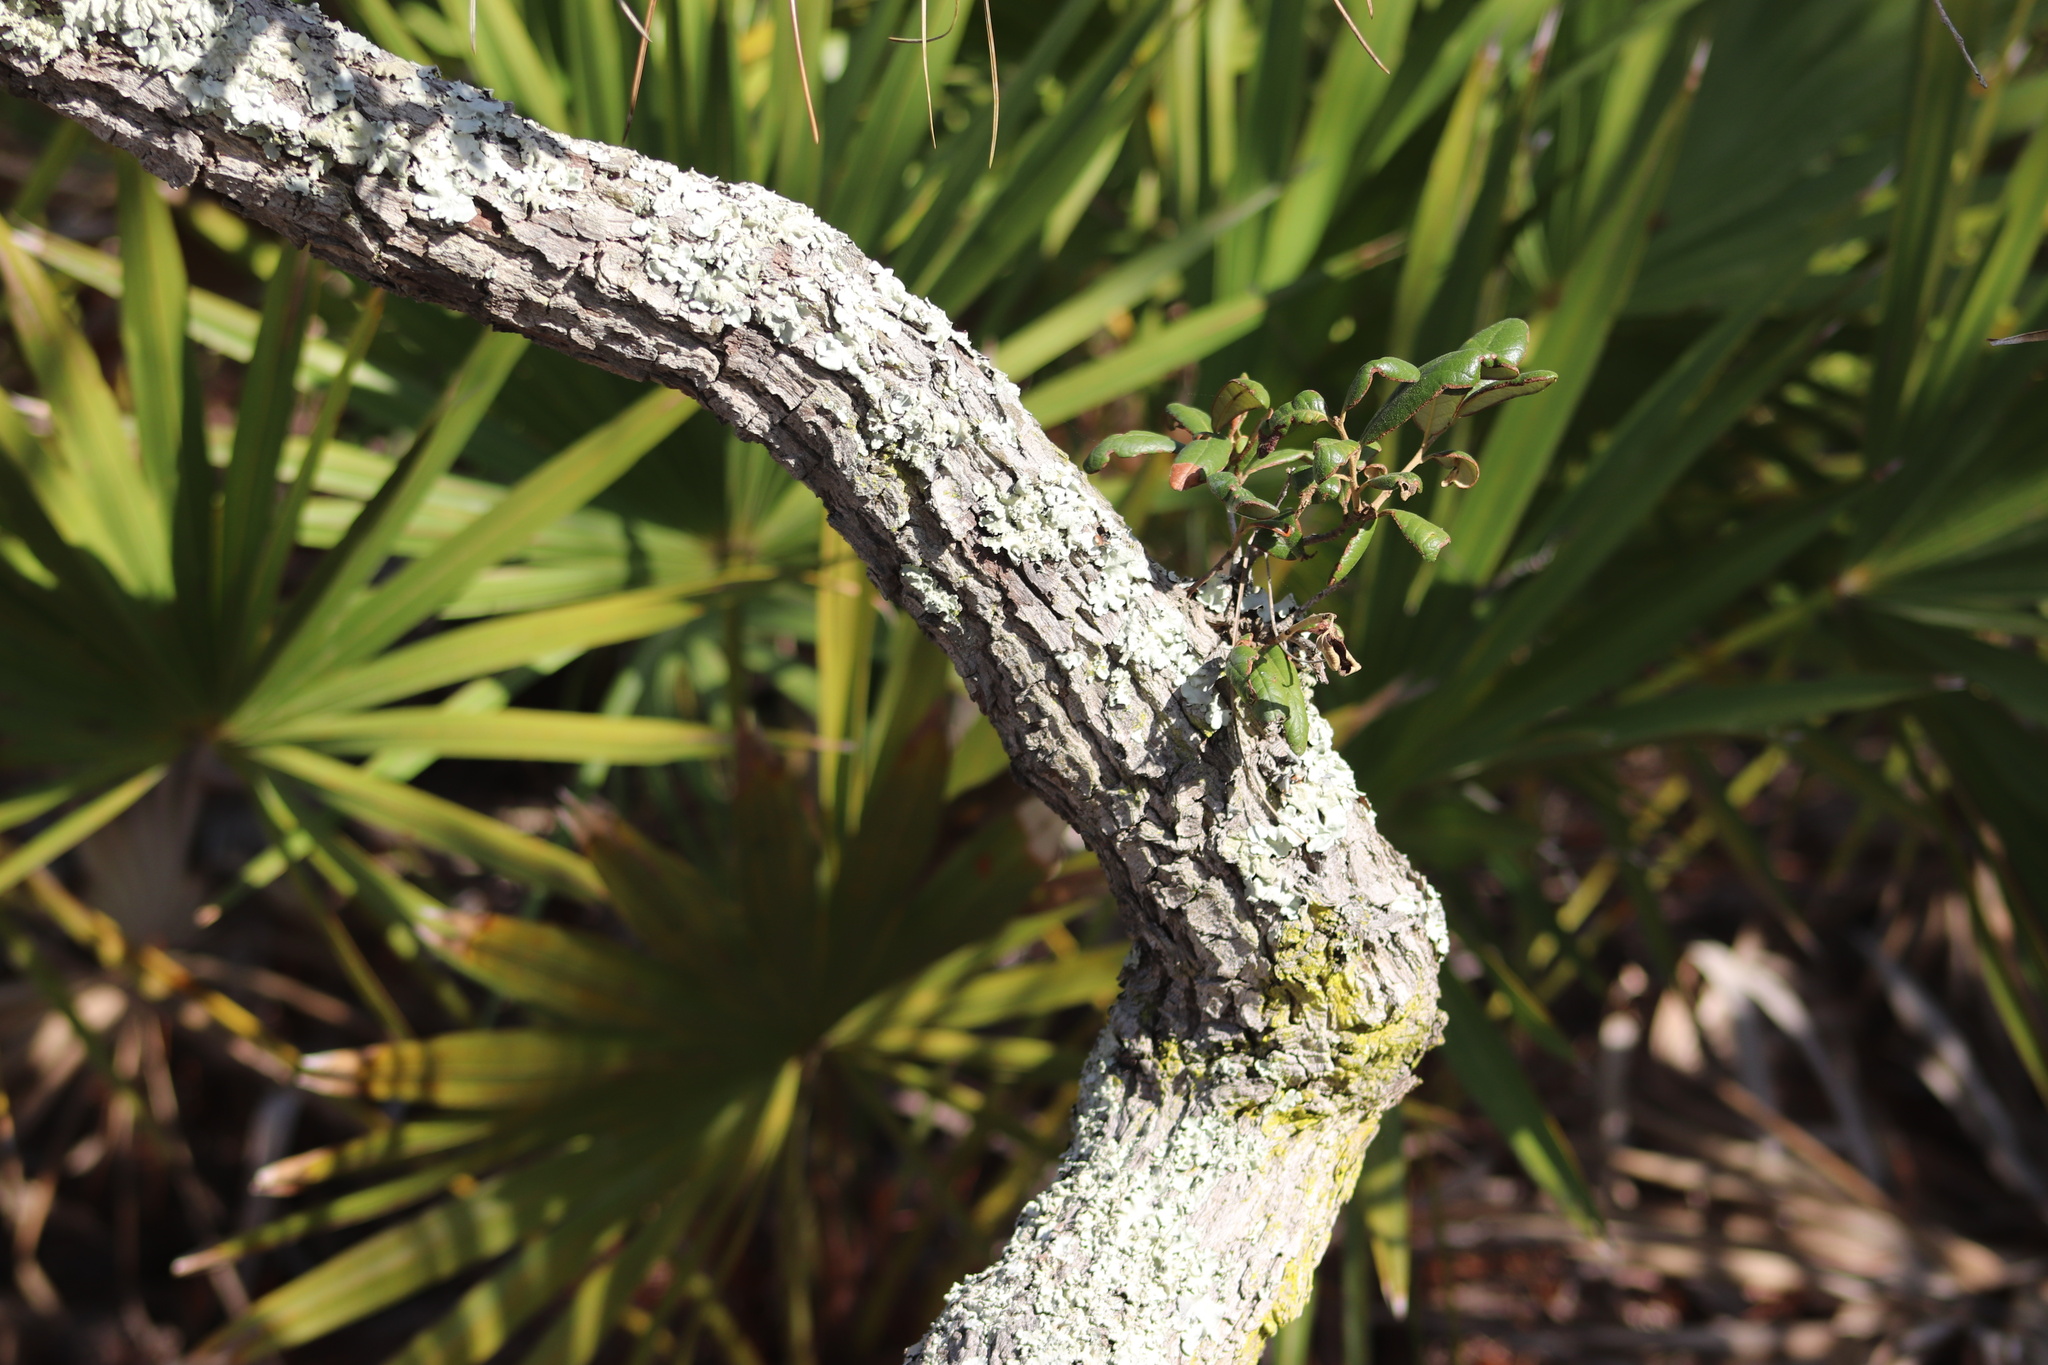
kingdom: Plantae
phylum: Tracheophyta
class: Magnoliopsida
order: Fagales
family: Fagaceae
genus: Quercus
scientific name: Quercus geminata
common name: Sand live oak
